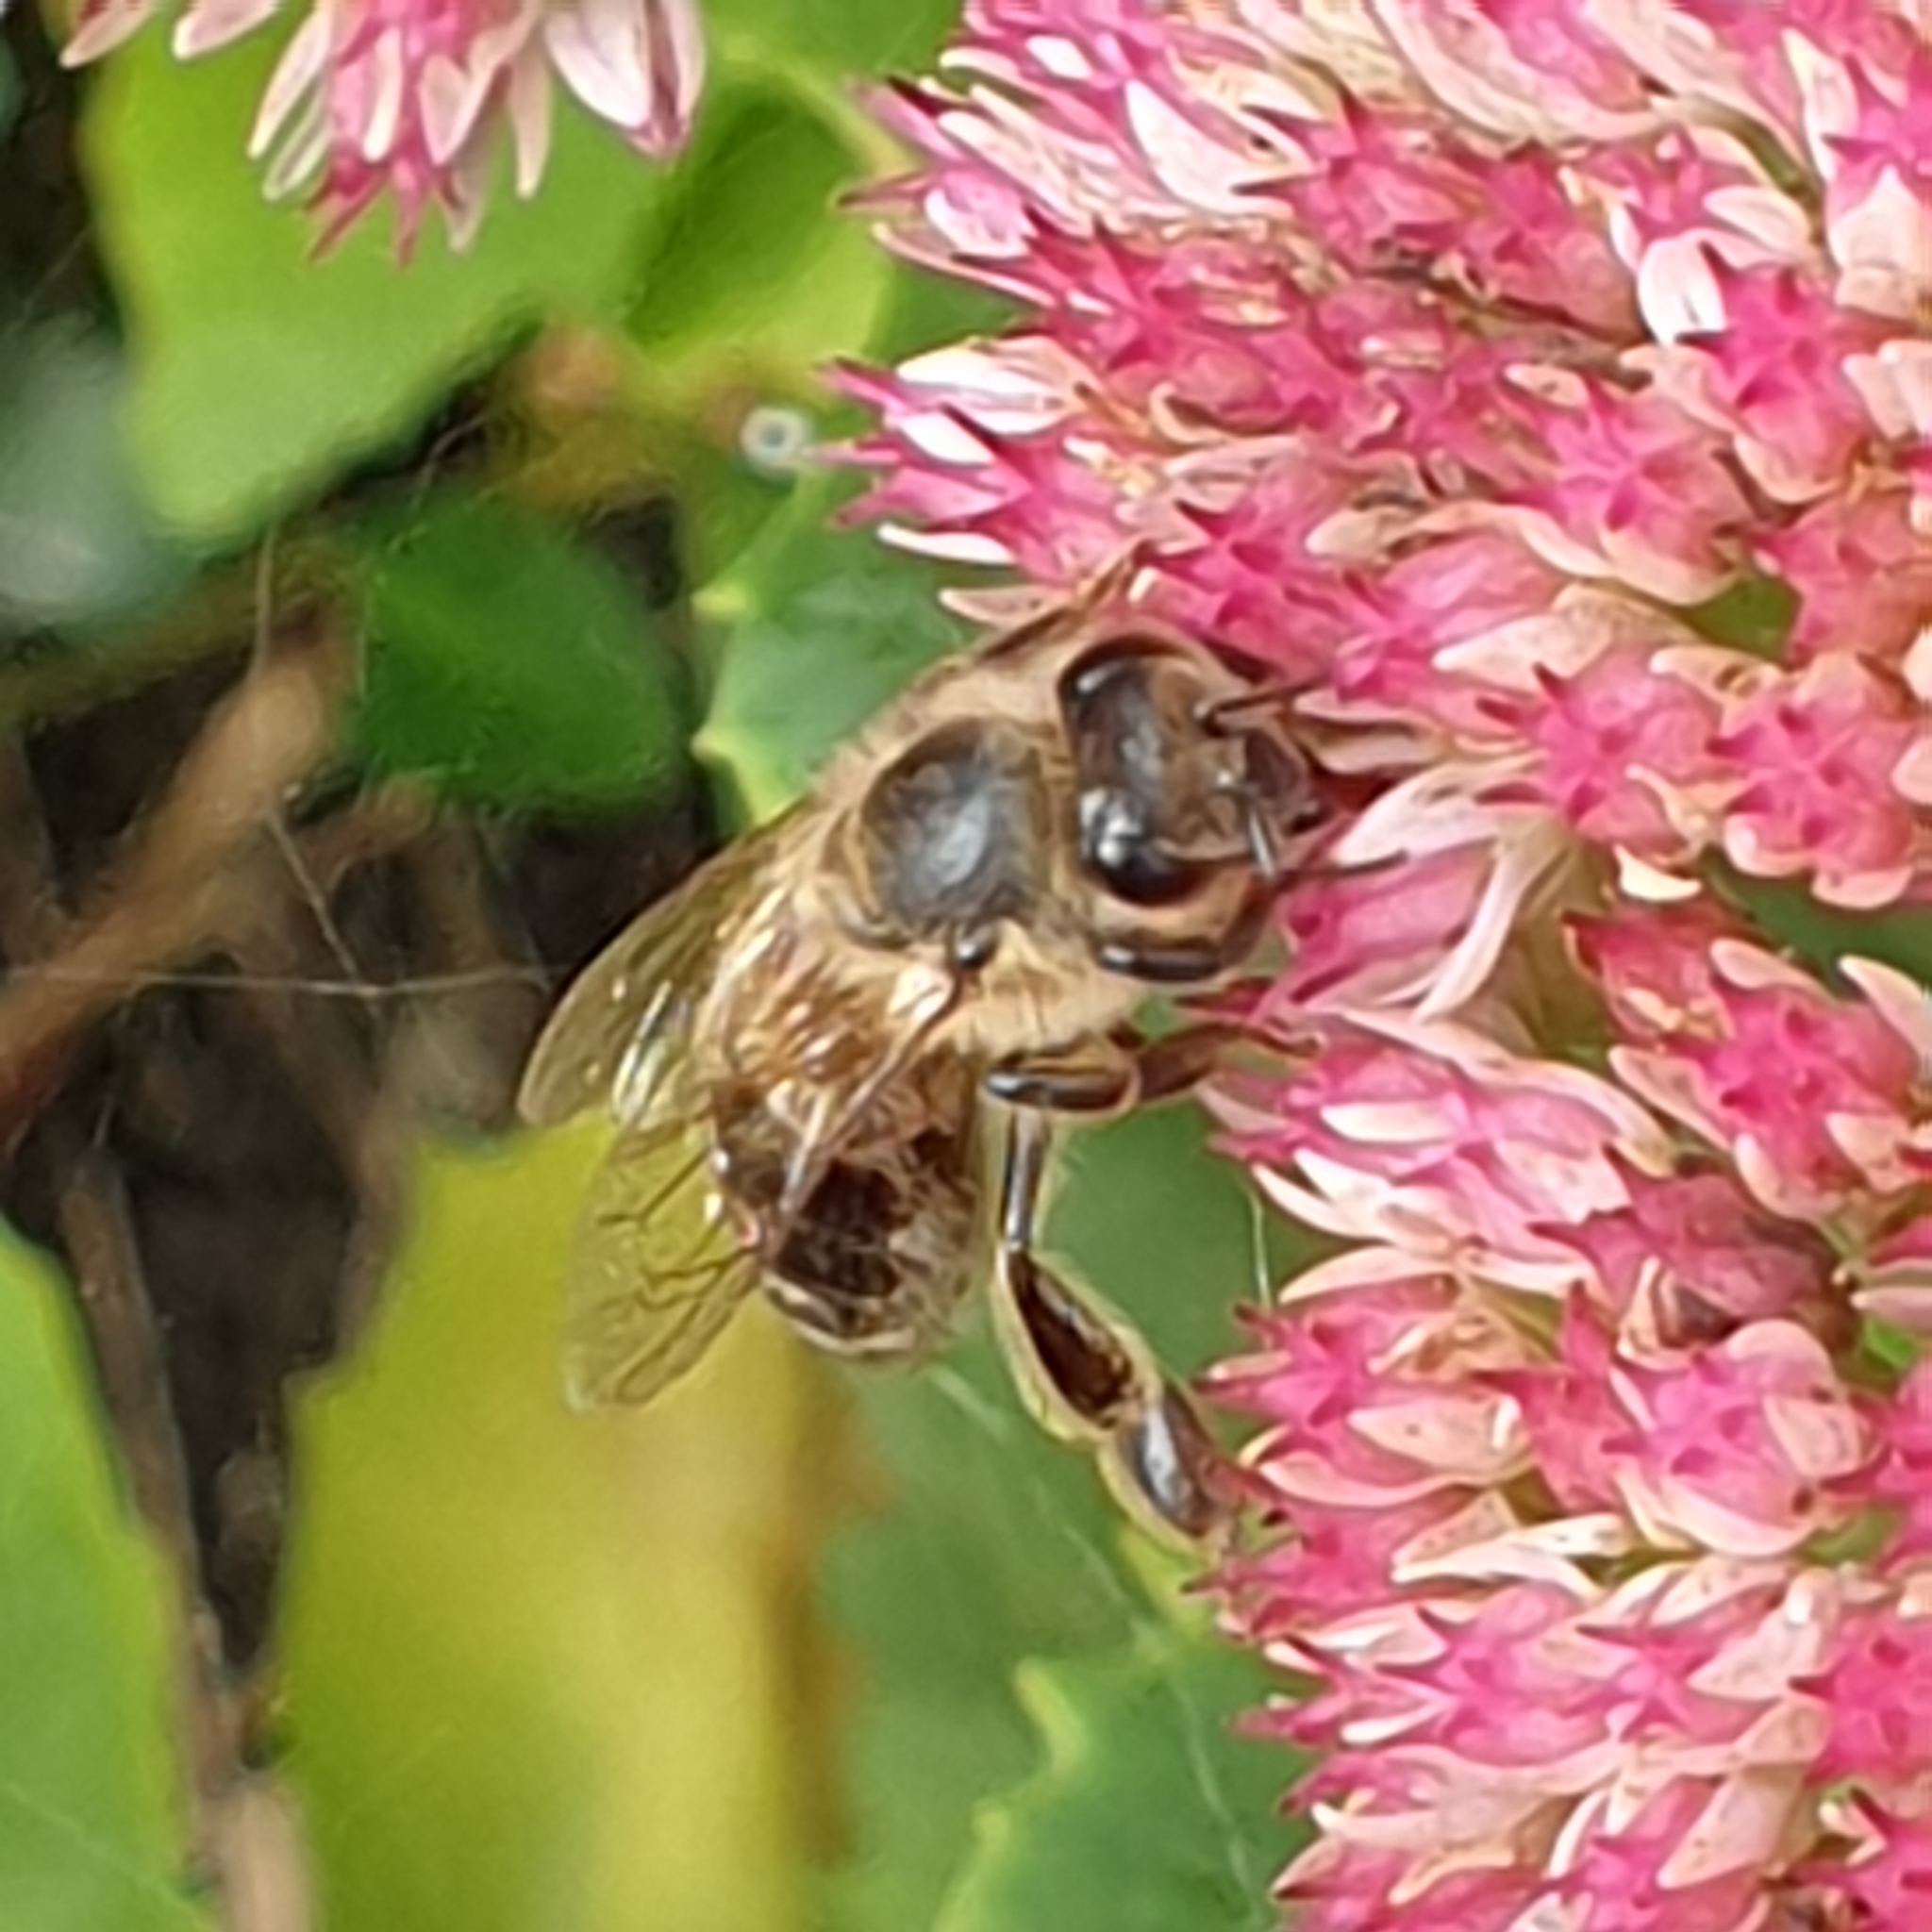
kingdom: Animalia
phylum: Arthropoda
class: Insecta
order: Hymenoptera
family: Apidae
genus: Apis
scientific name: Apis mellifera
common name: Honey bee
